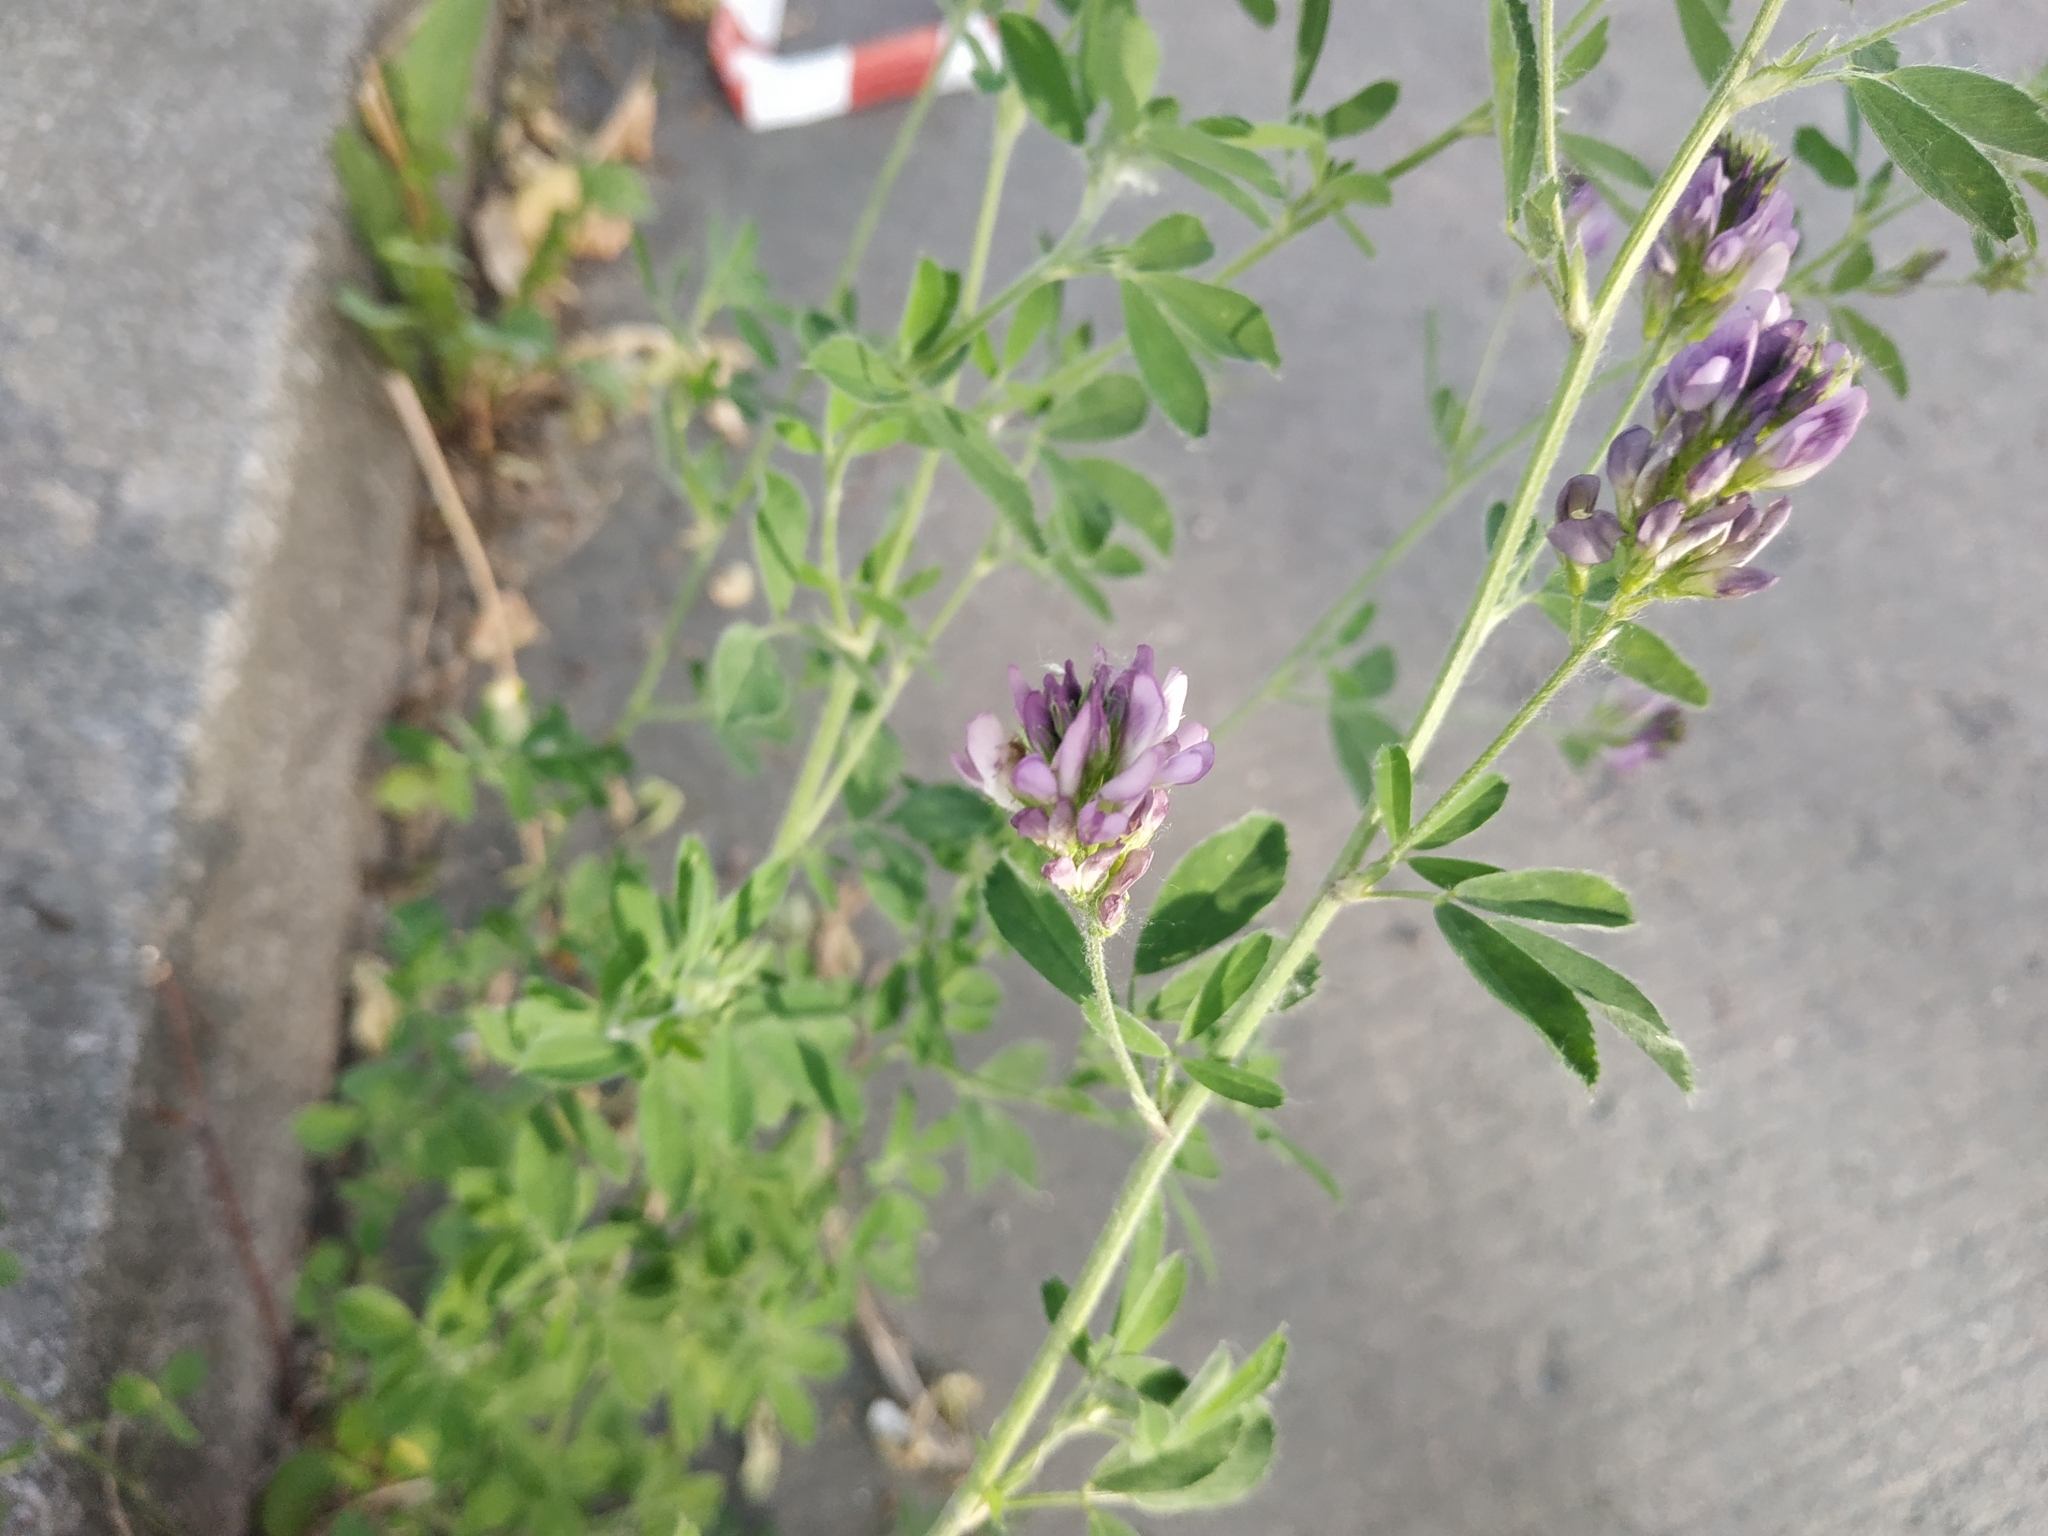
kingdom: Plantae
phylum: Tracheophyta
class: Magnoliopsida
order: Fabales
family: Fabaceae
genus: Medicago
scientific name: Medicago varia
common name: Sand lucerne
